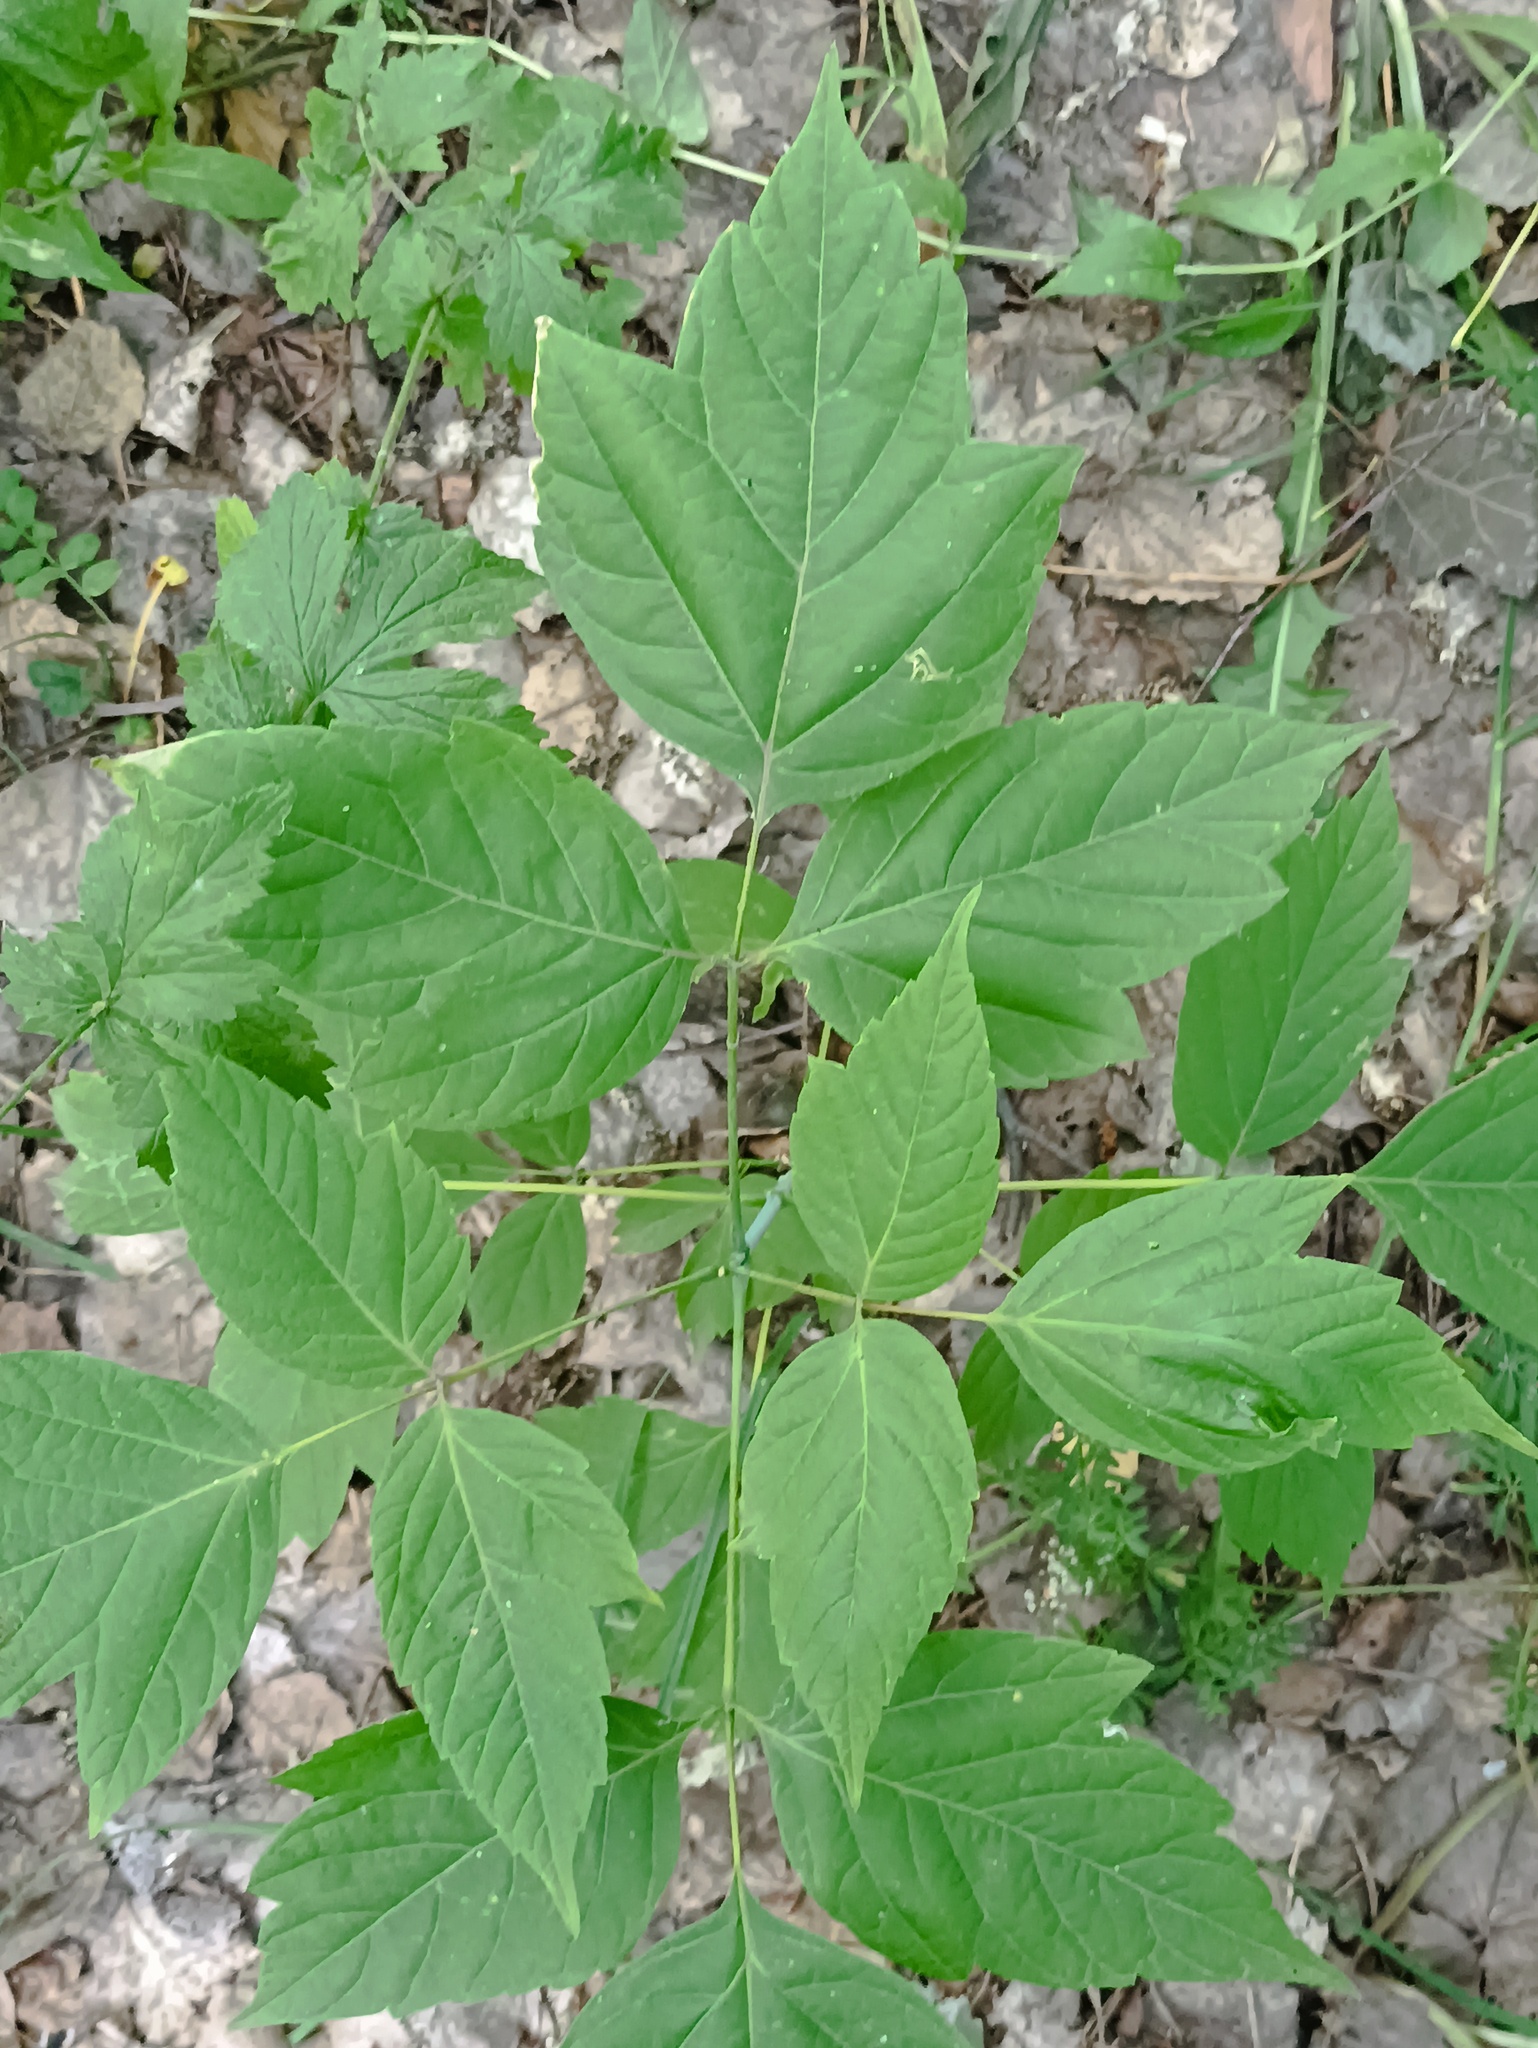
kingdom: Plantae
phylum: Tracheophyta
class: Magnoliopsida
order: Sapindales
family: Sapindaceae
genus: Acer
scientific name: Acer negundo
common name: Ashleaf maple
